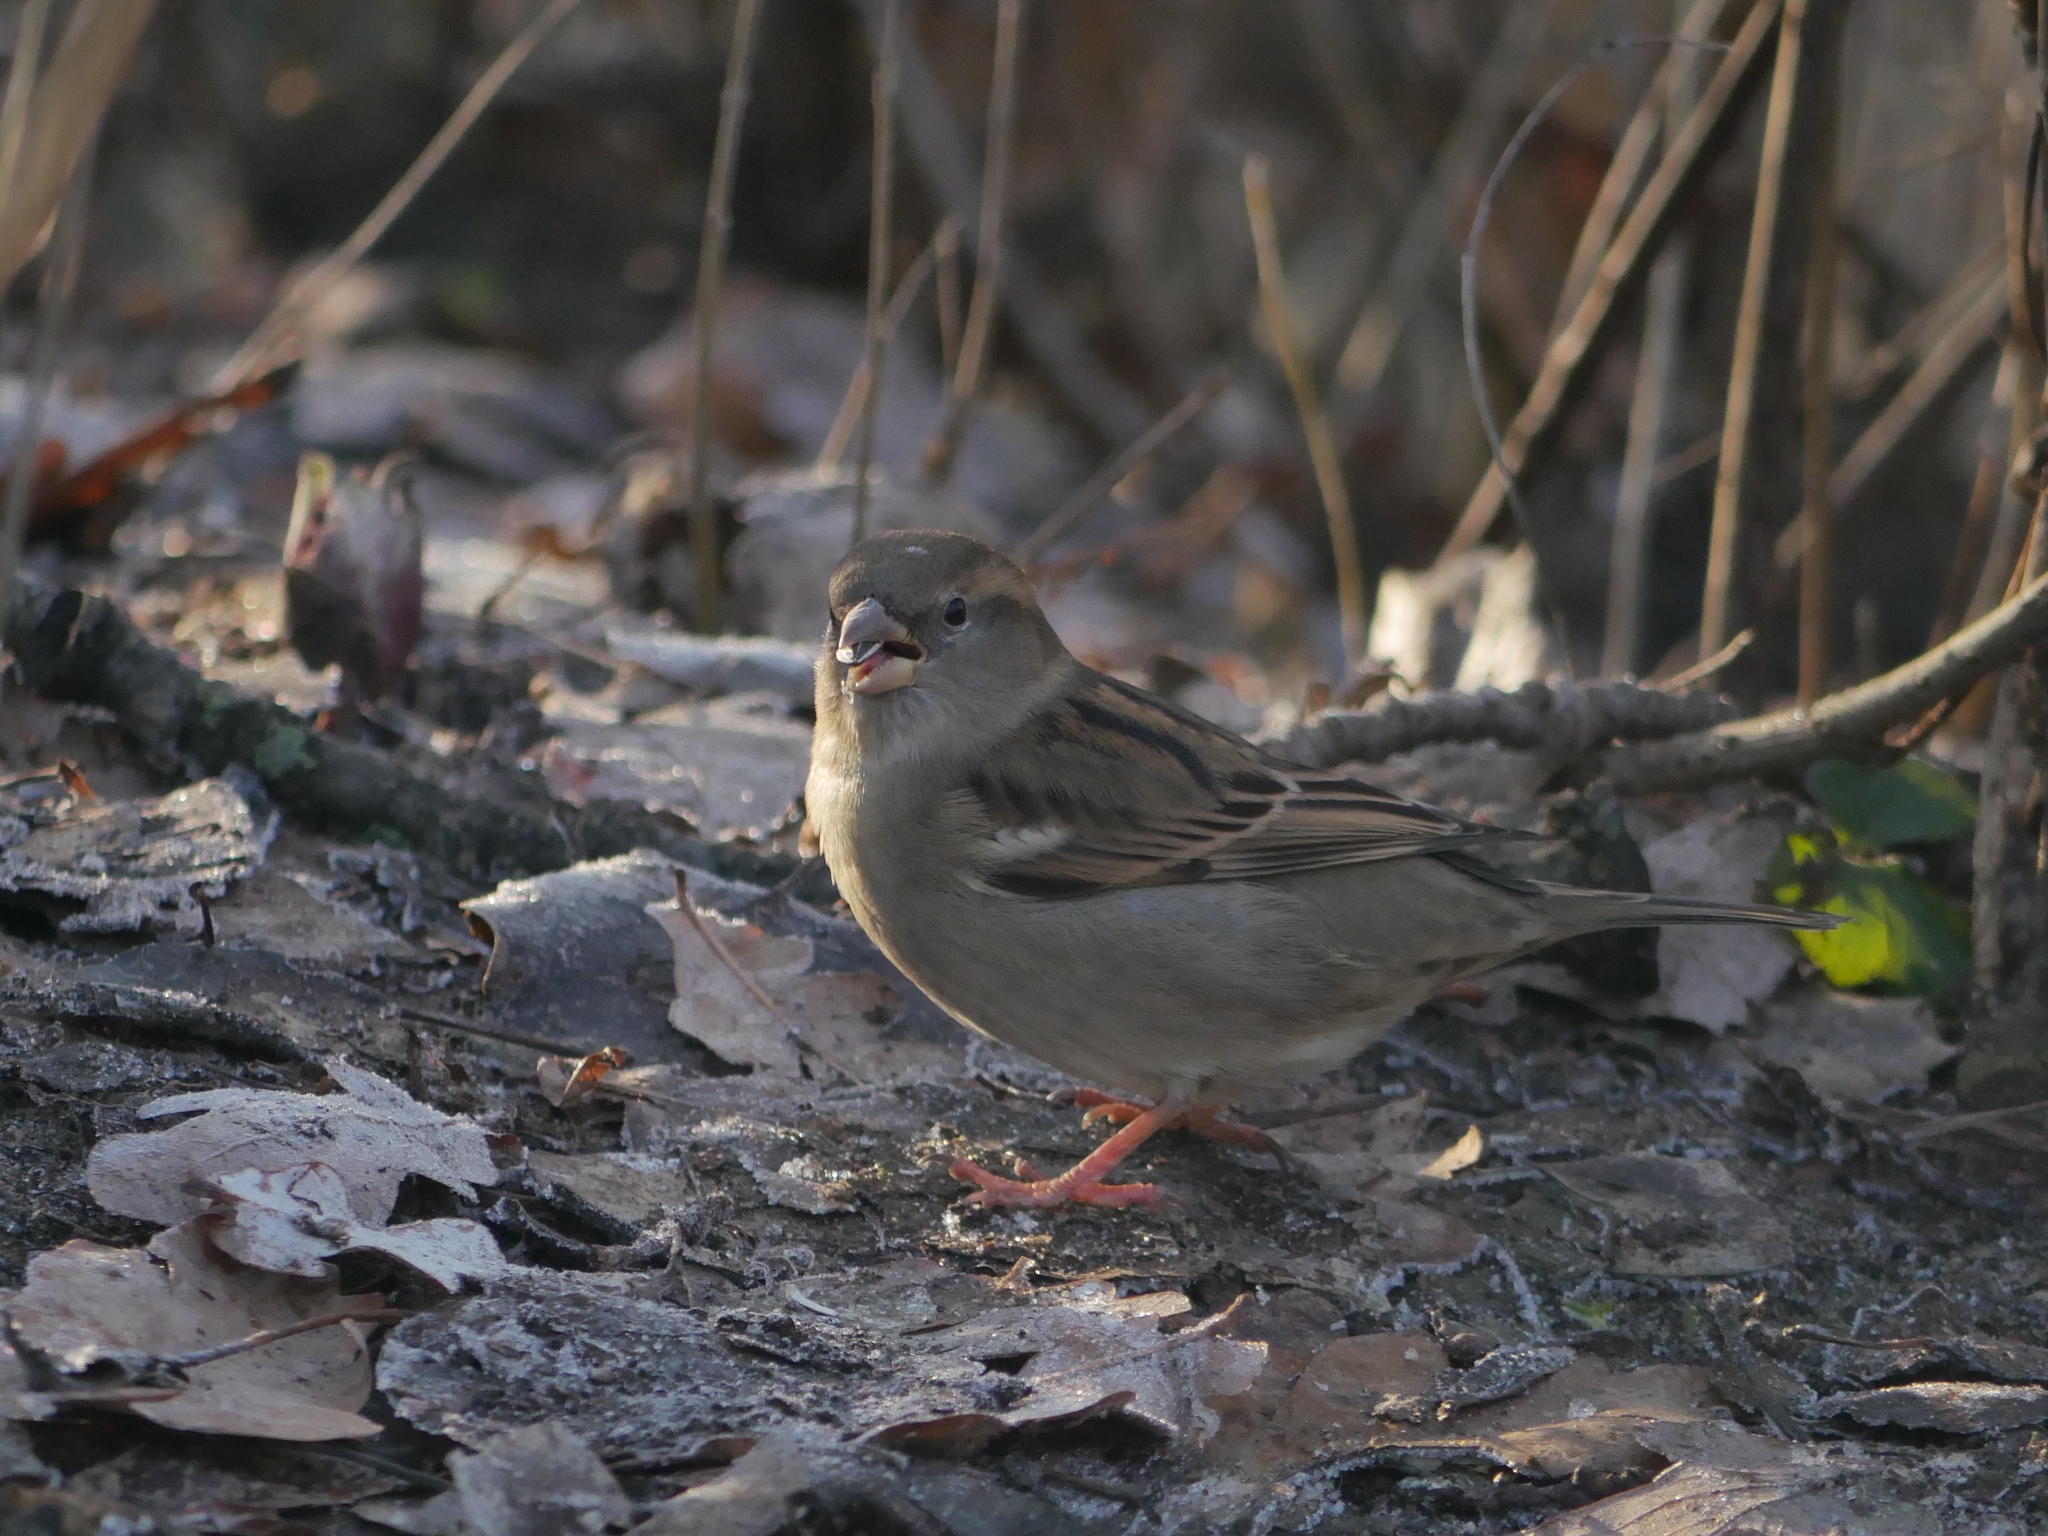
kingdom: Animalia
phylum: Chordata
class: Aves
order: Passeriformes
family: Passeridae
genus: Passer
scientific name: Passer domesticus
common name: House sparrow
